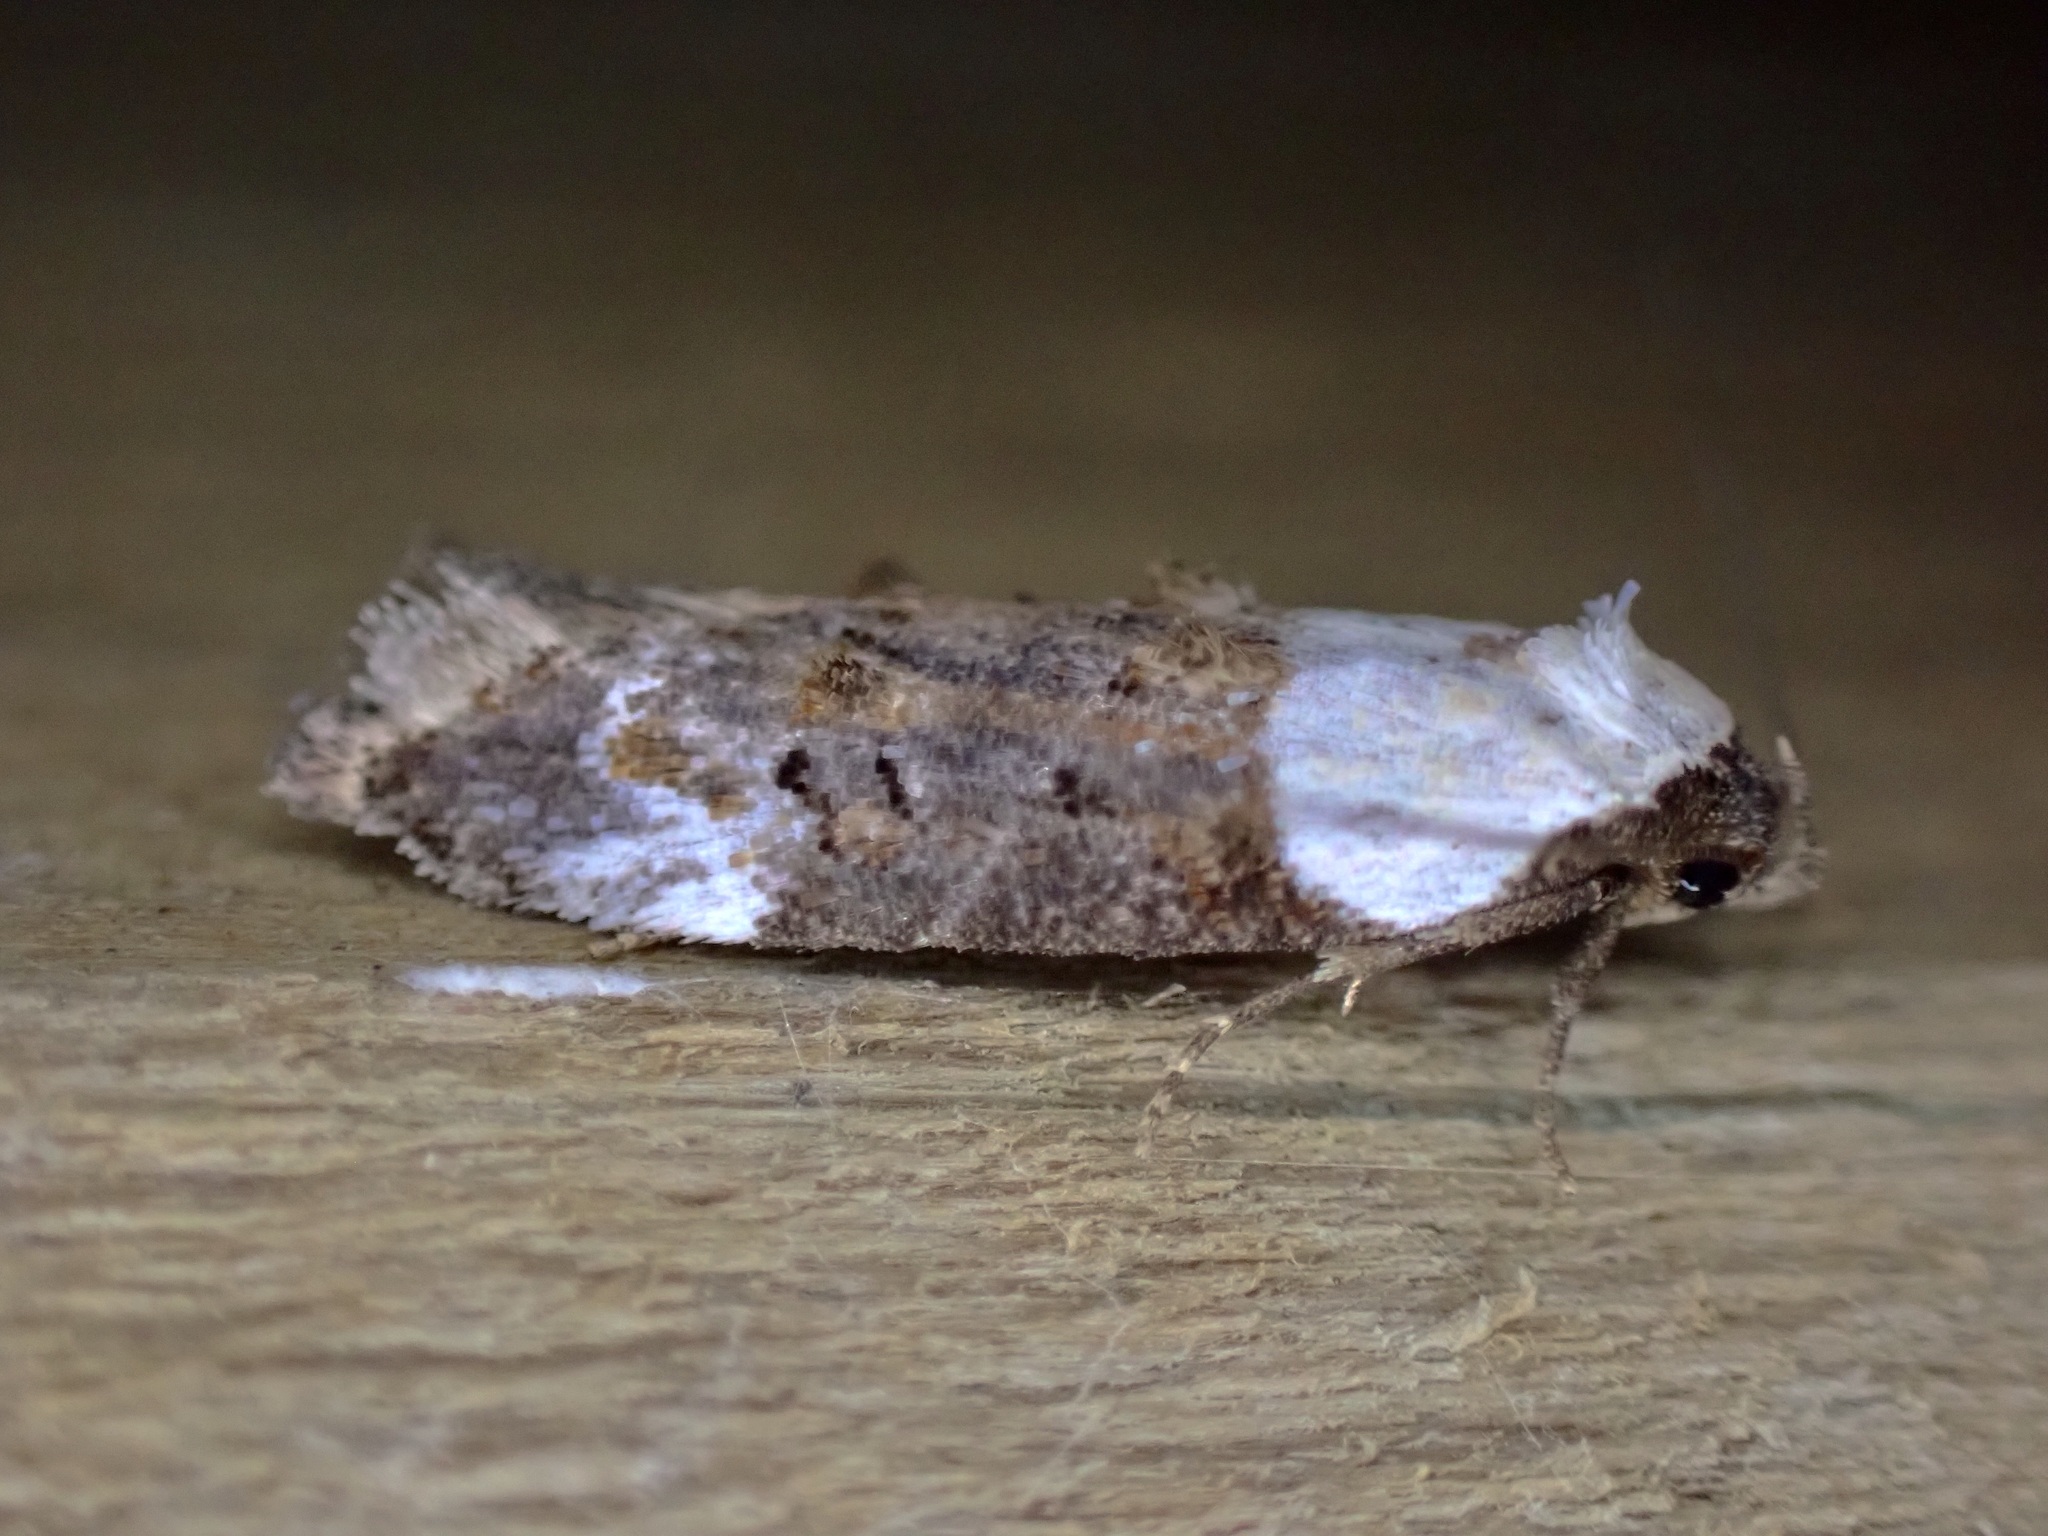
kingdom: Animalia
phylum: Arthropoda
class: Insecta
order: Lepidoptera
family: Oecophoridae
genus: Trachypepla
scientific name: Trachypepla euryleucota
